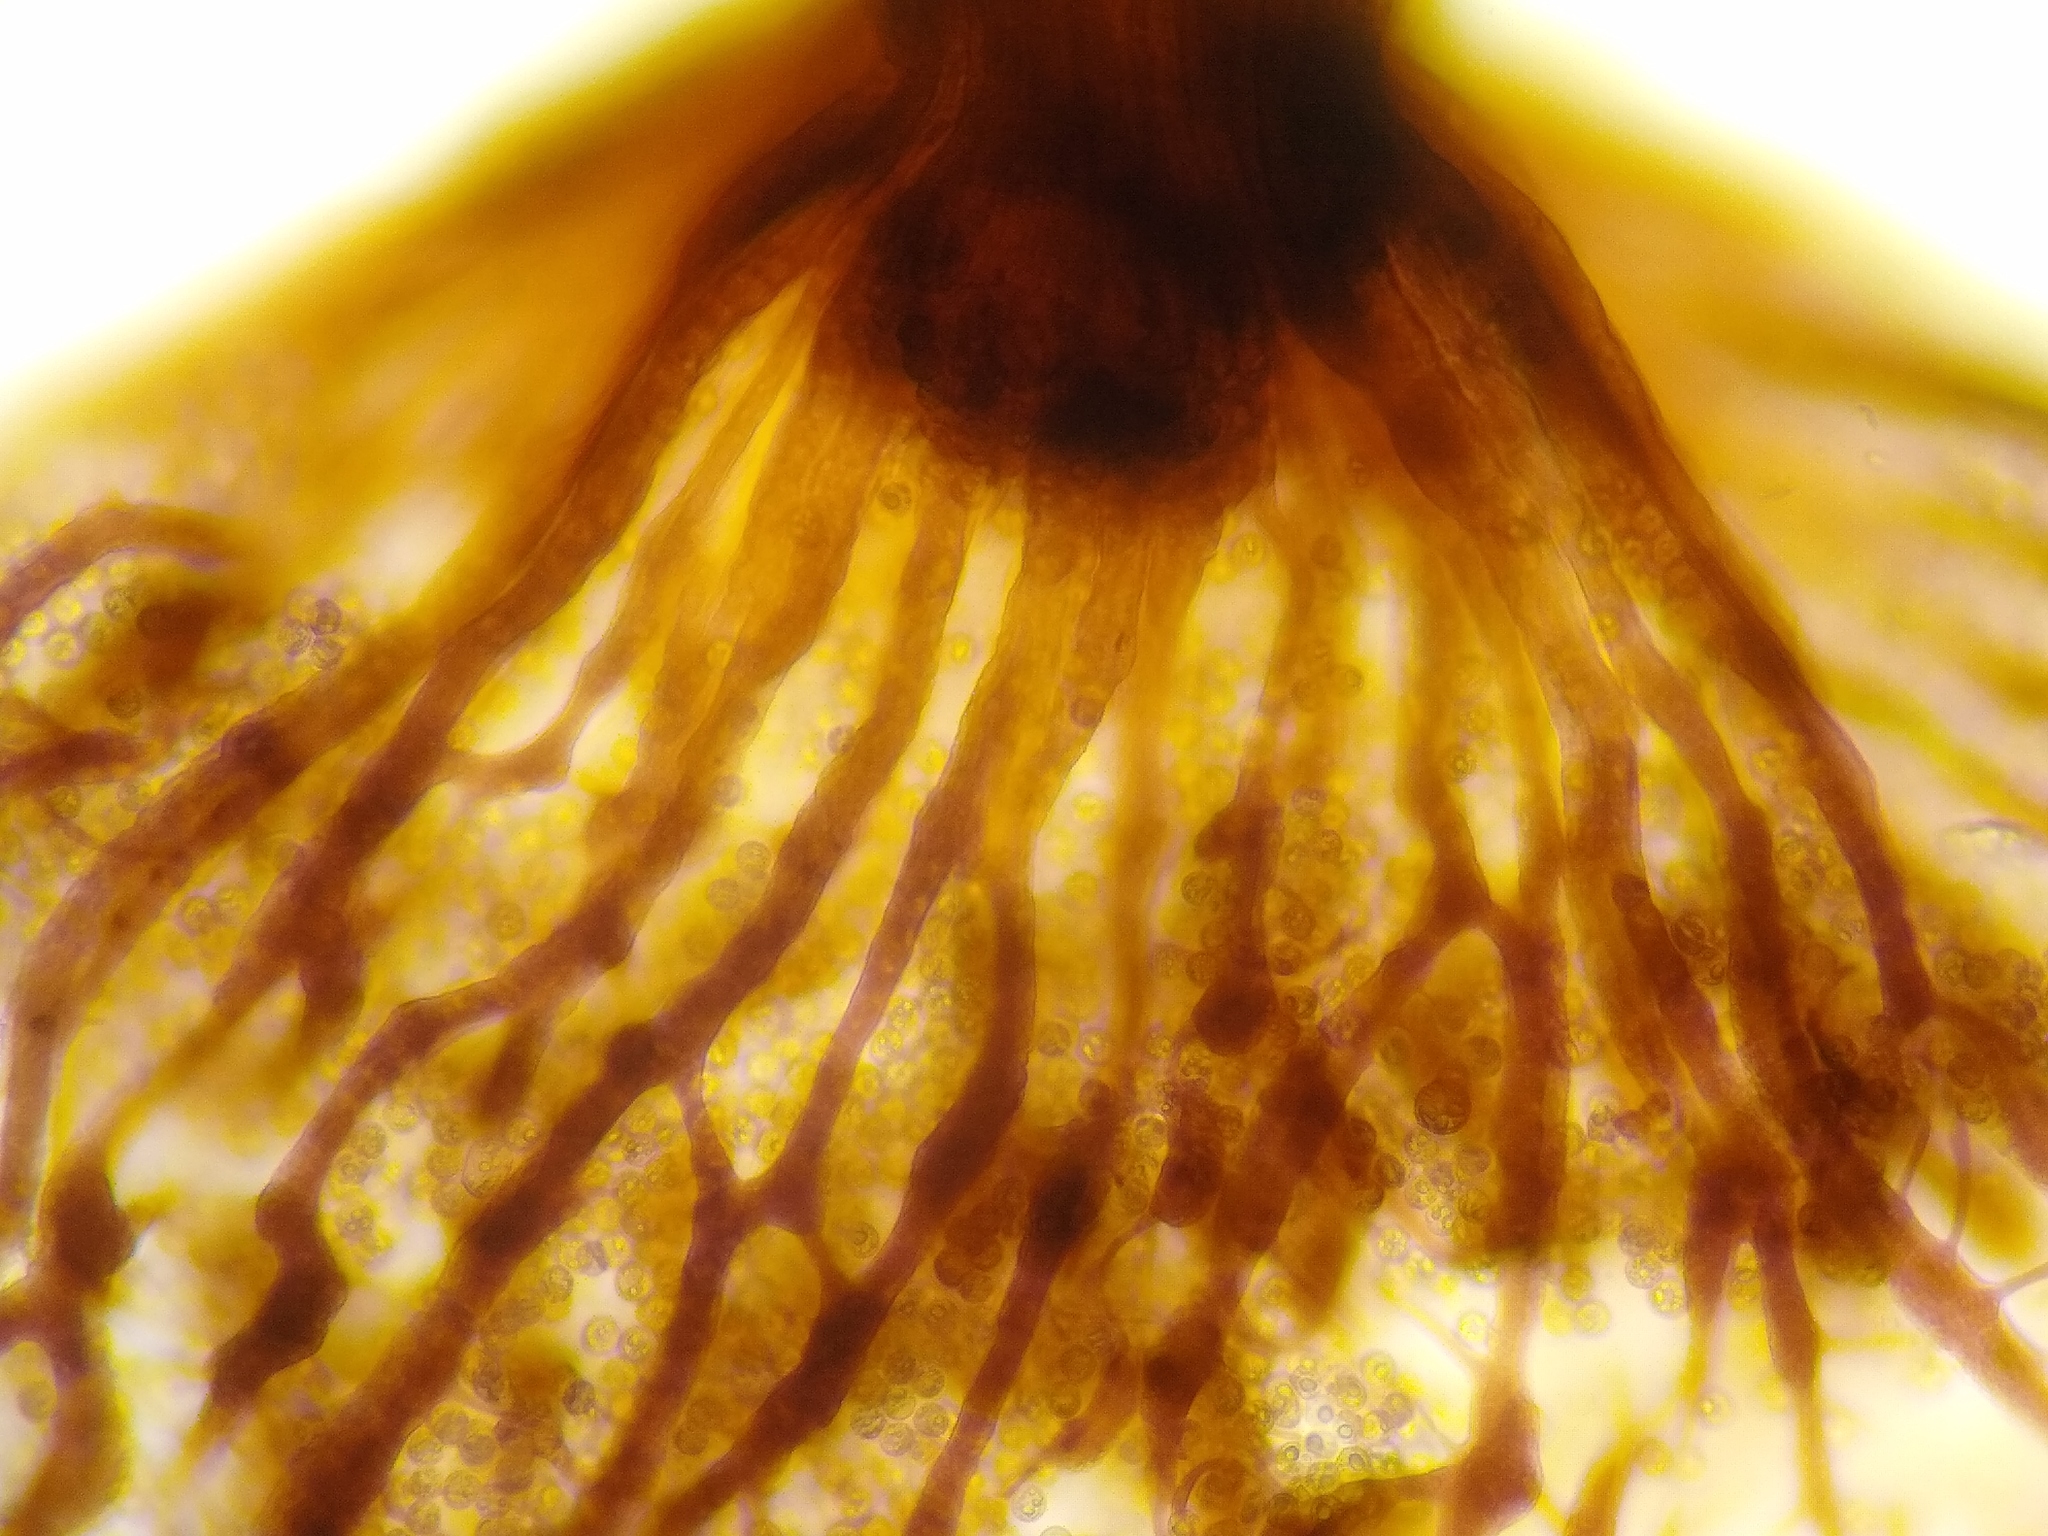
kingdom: Protozoa
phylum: Mycetozoa
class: Myxomycetes
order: Cribrariales
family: Cribrariaceae
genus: Cribraria
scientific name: Cribraria intricata
